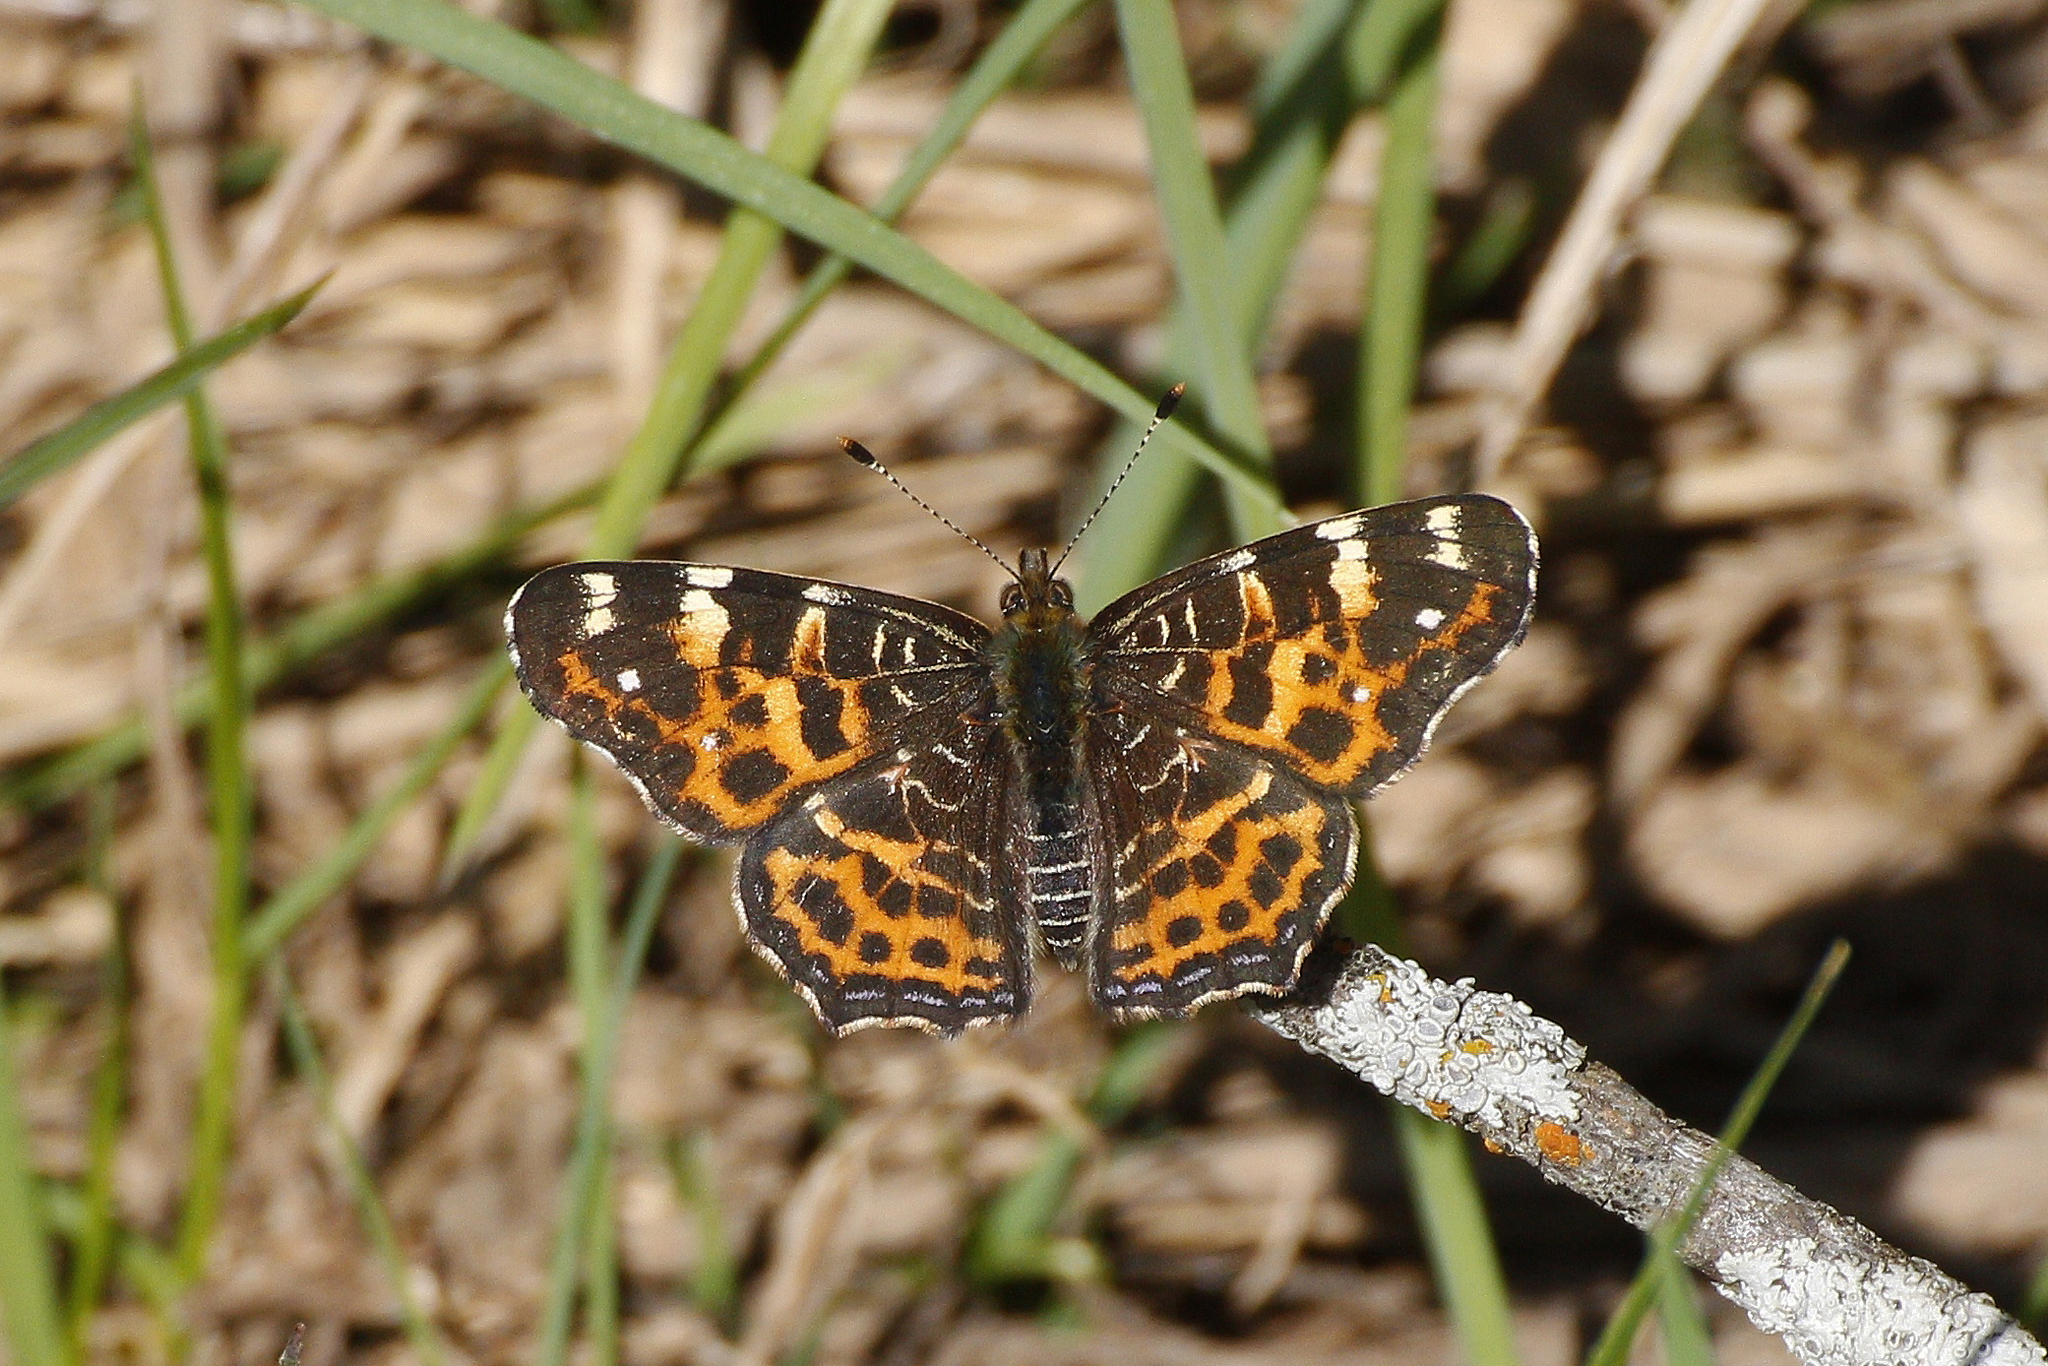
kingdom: Animalia
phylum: Arthropoda
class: Insecta
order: Lepidoptera
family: Nymphalidae
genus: Araschnia
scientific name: Araschnia levana
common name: Map butterfly
